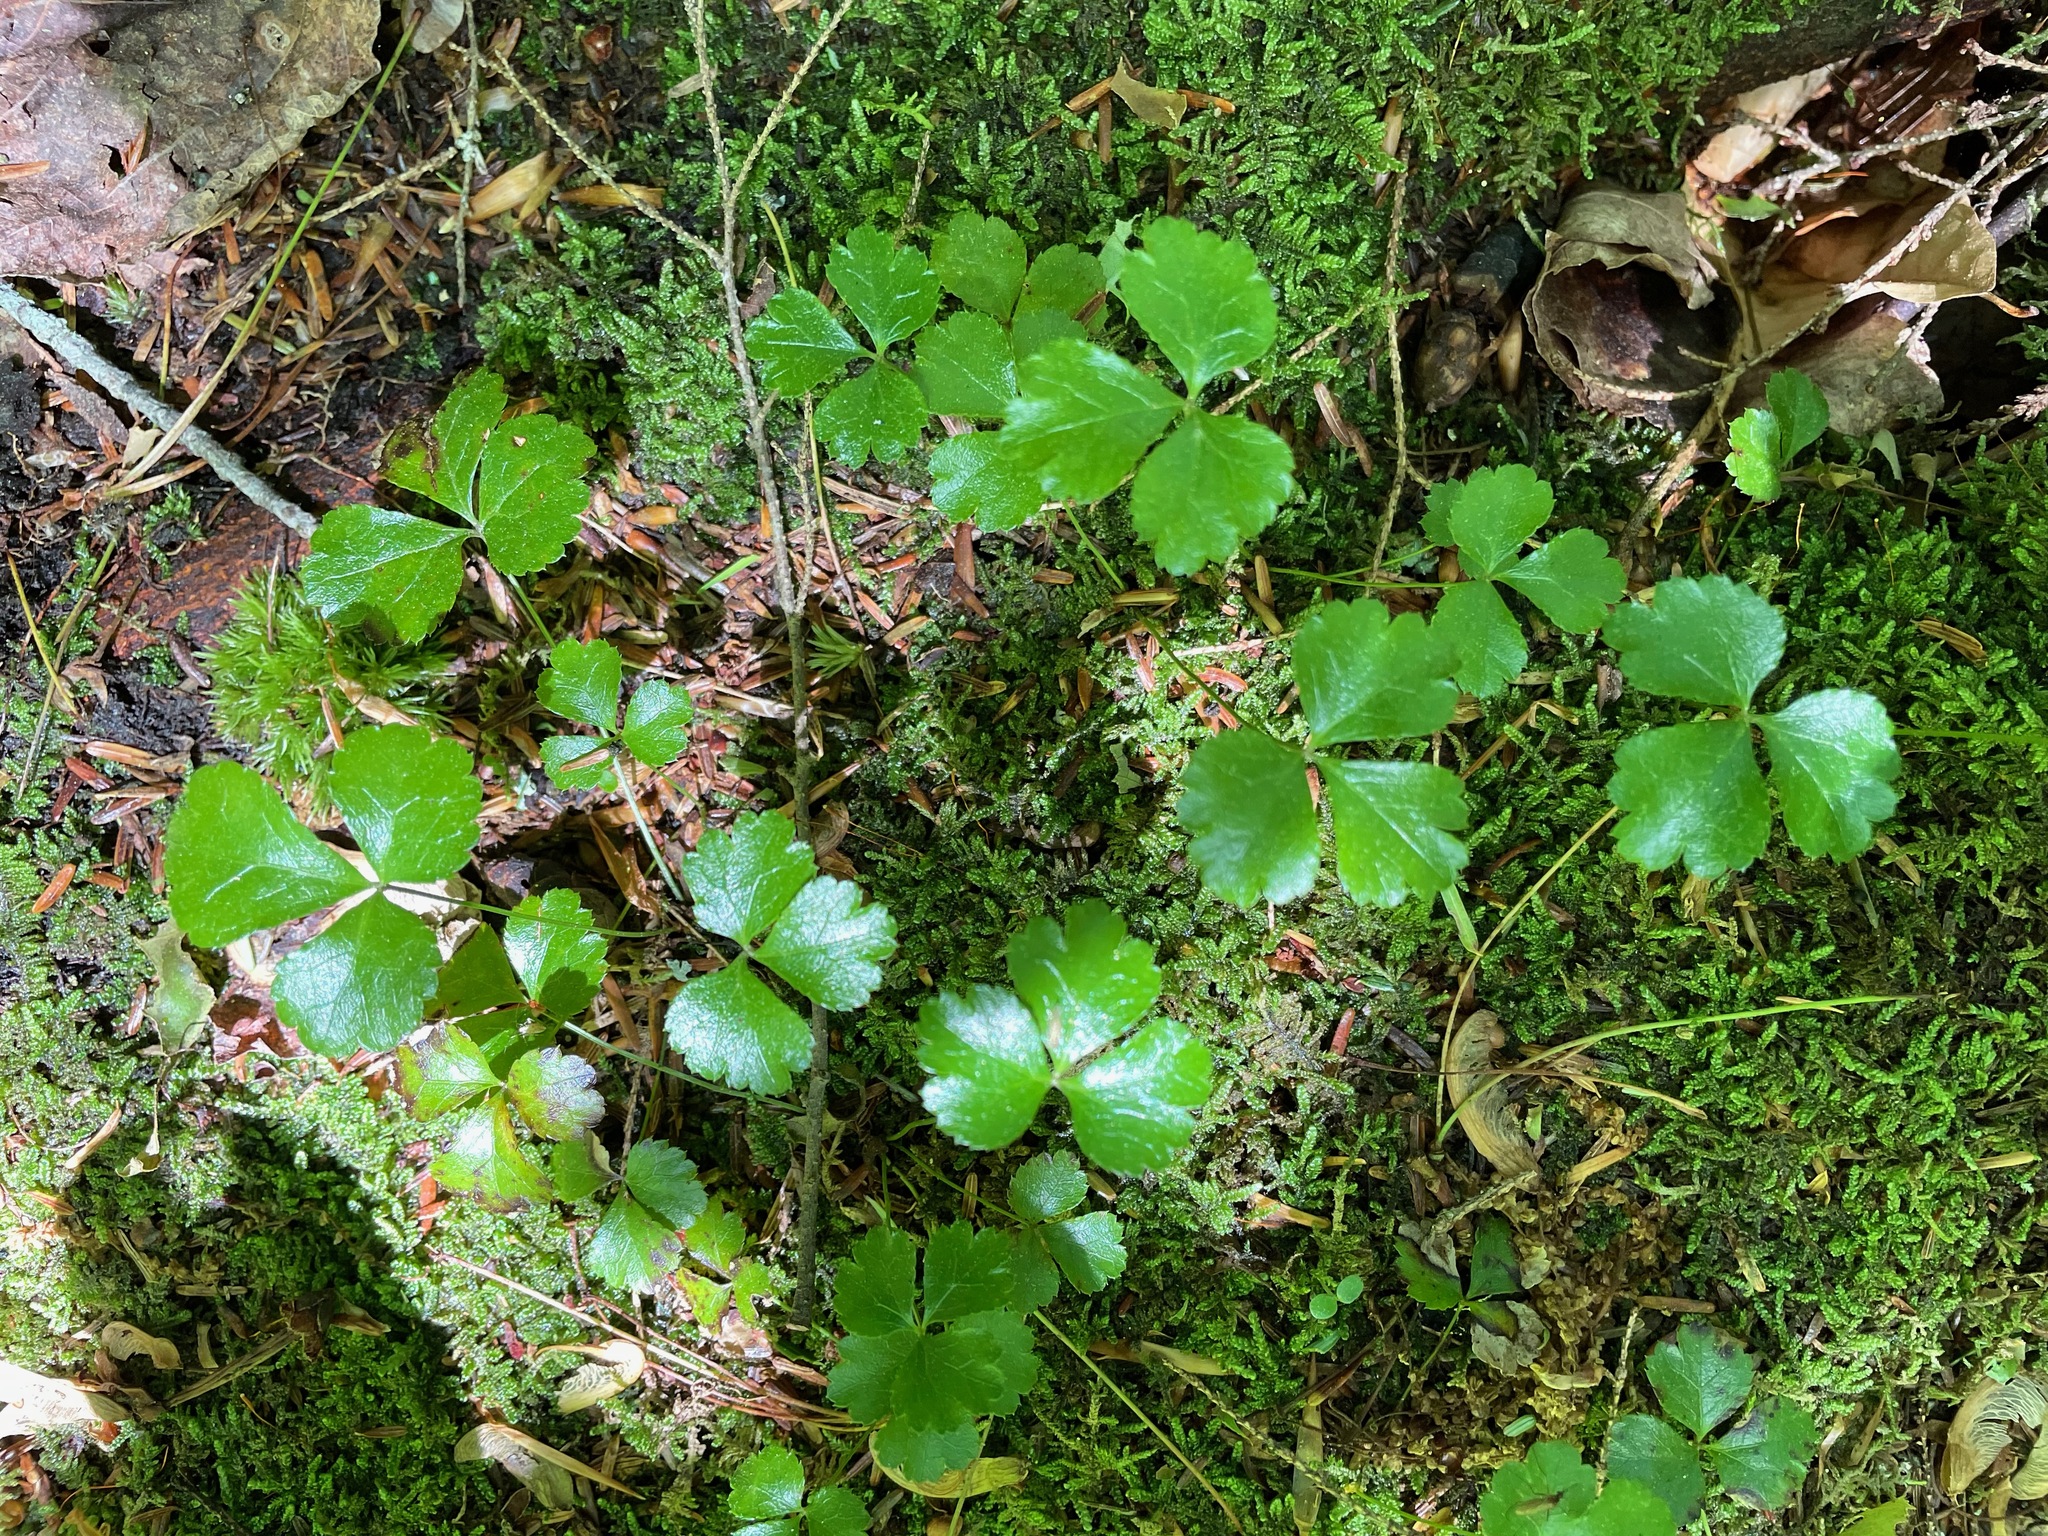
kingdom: Plantae
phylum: Tracheophyta
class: Magnoliopsida
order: Ranunculales
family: Ranunculaceae
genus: Coptis
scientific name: Coptis trifolia
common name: Canker-root
